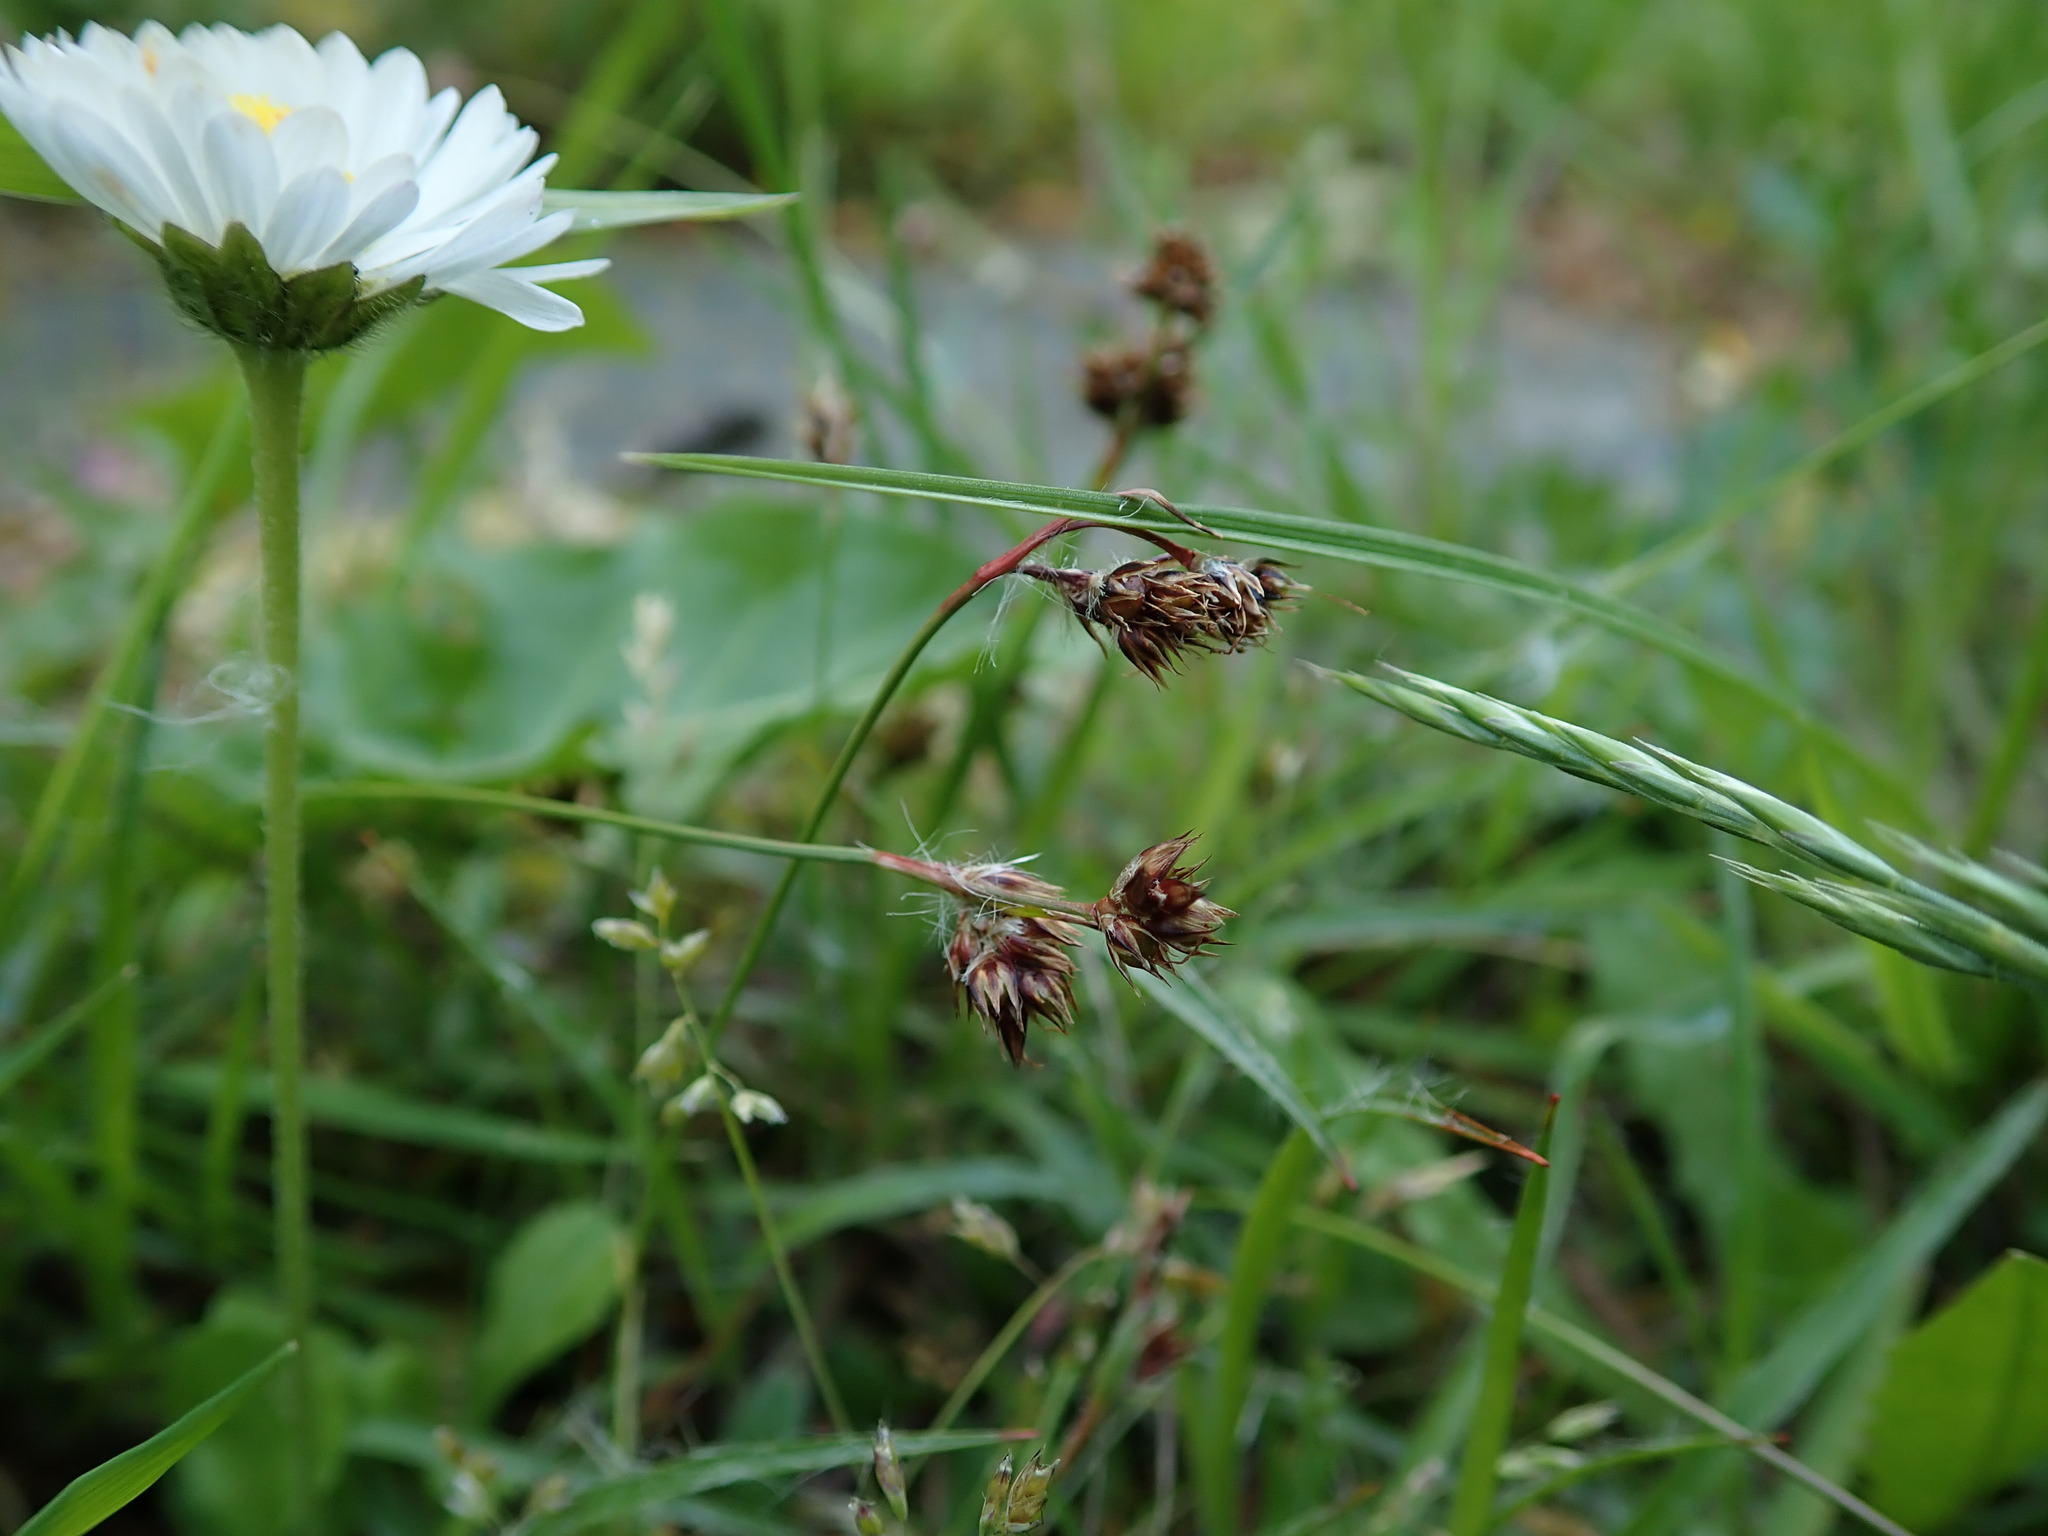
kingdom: Plantae
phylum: Tracheophyta
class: Liliopsida
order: Poales
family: Juncaceae
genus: Luzula
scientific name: Luzula campestris
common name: Field wood-rush
